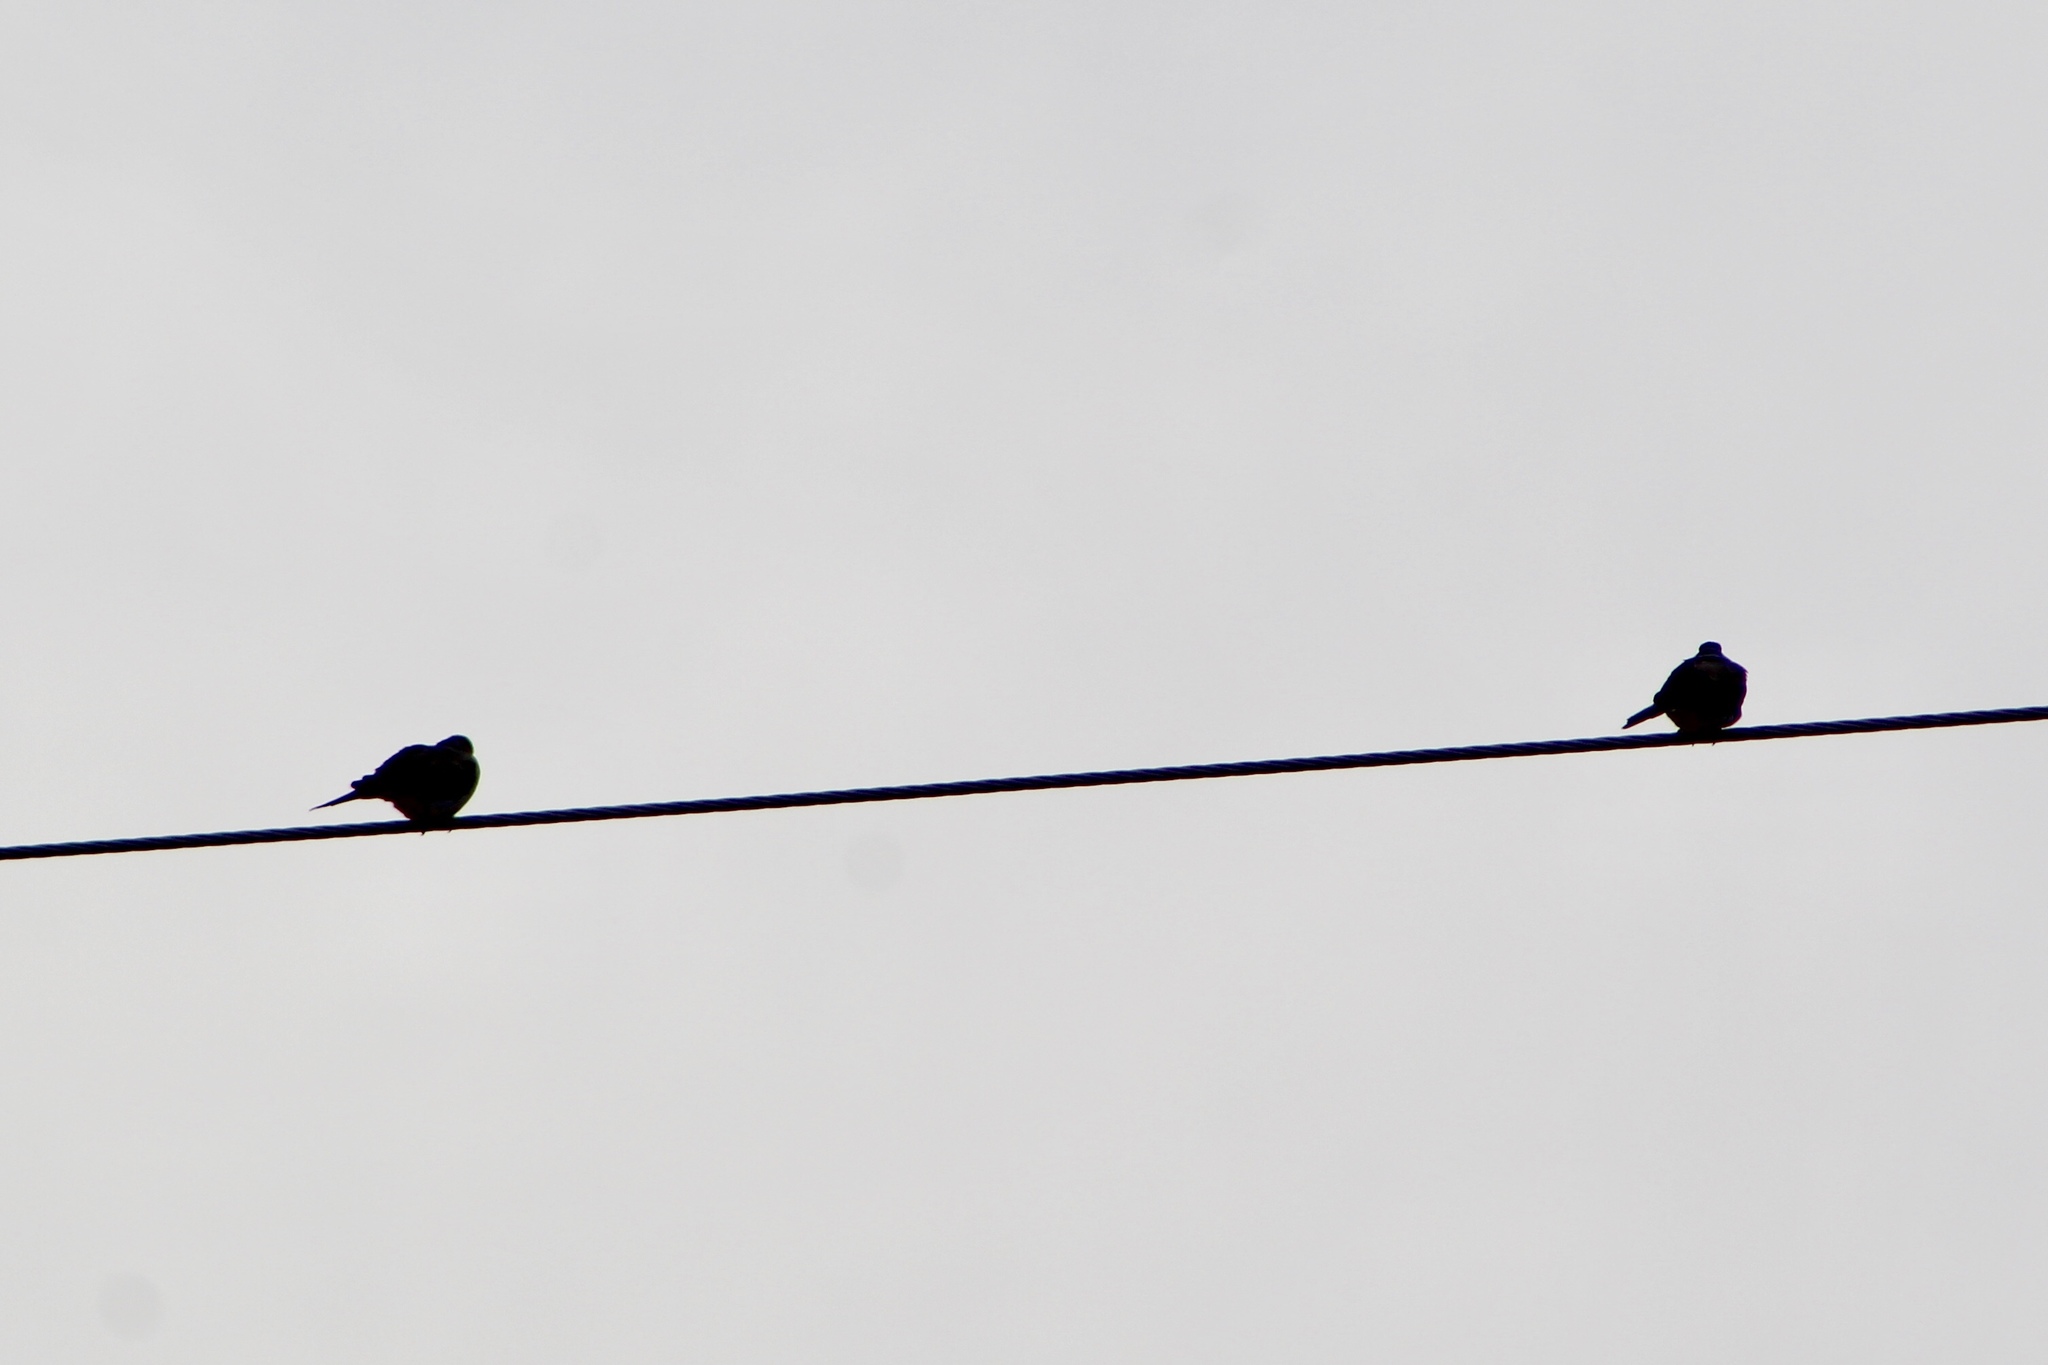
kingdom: Animalia
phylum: Chordata
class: Aves
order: Columbiformes
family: Columbidae
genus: Zenaida
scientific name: Zenaida macroura
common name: Mourning dove
